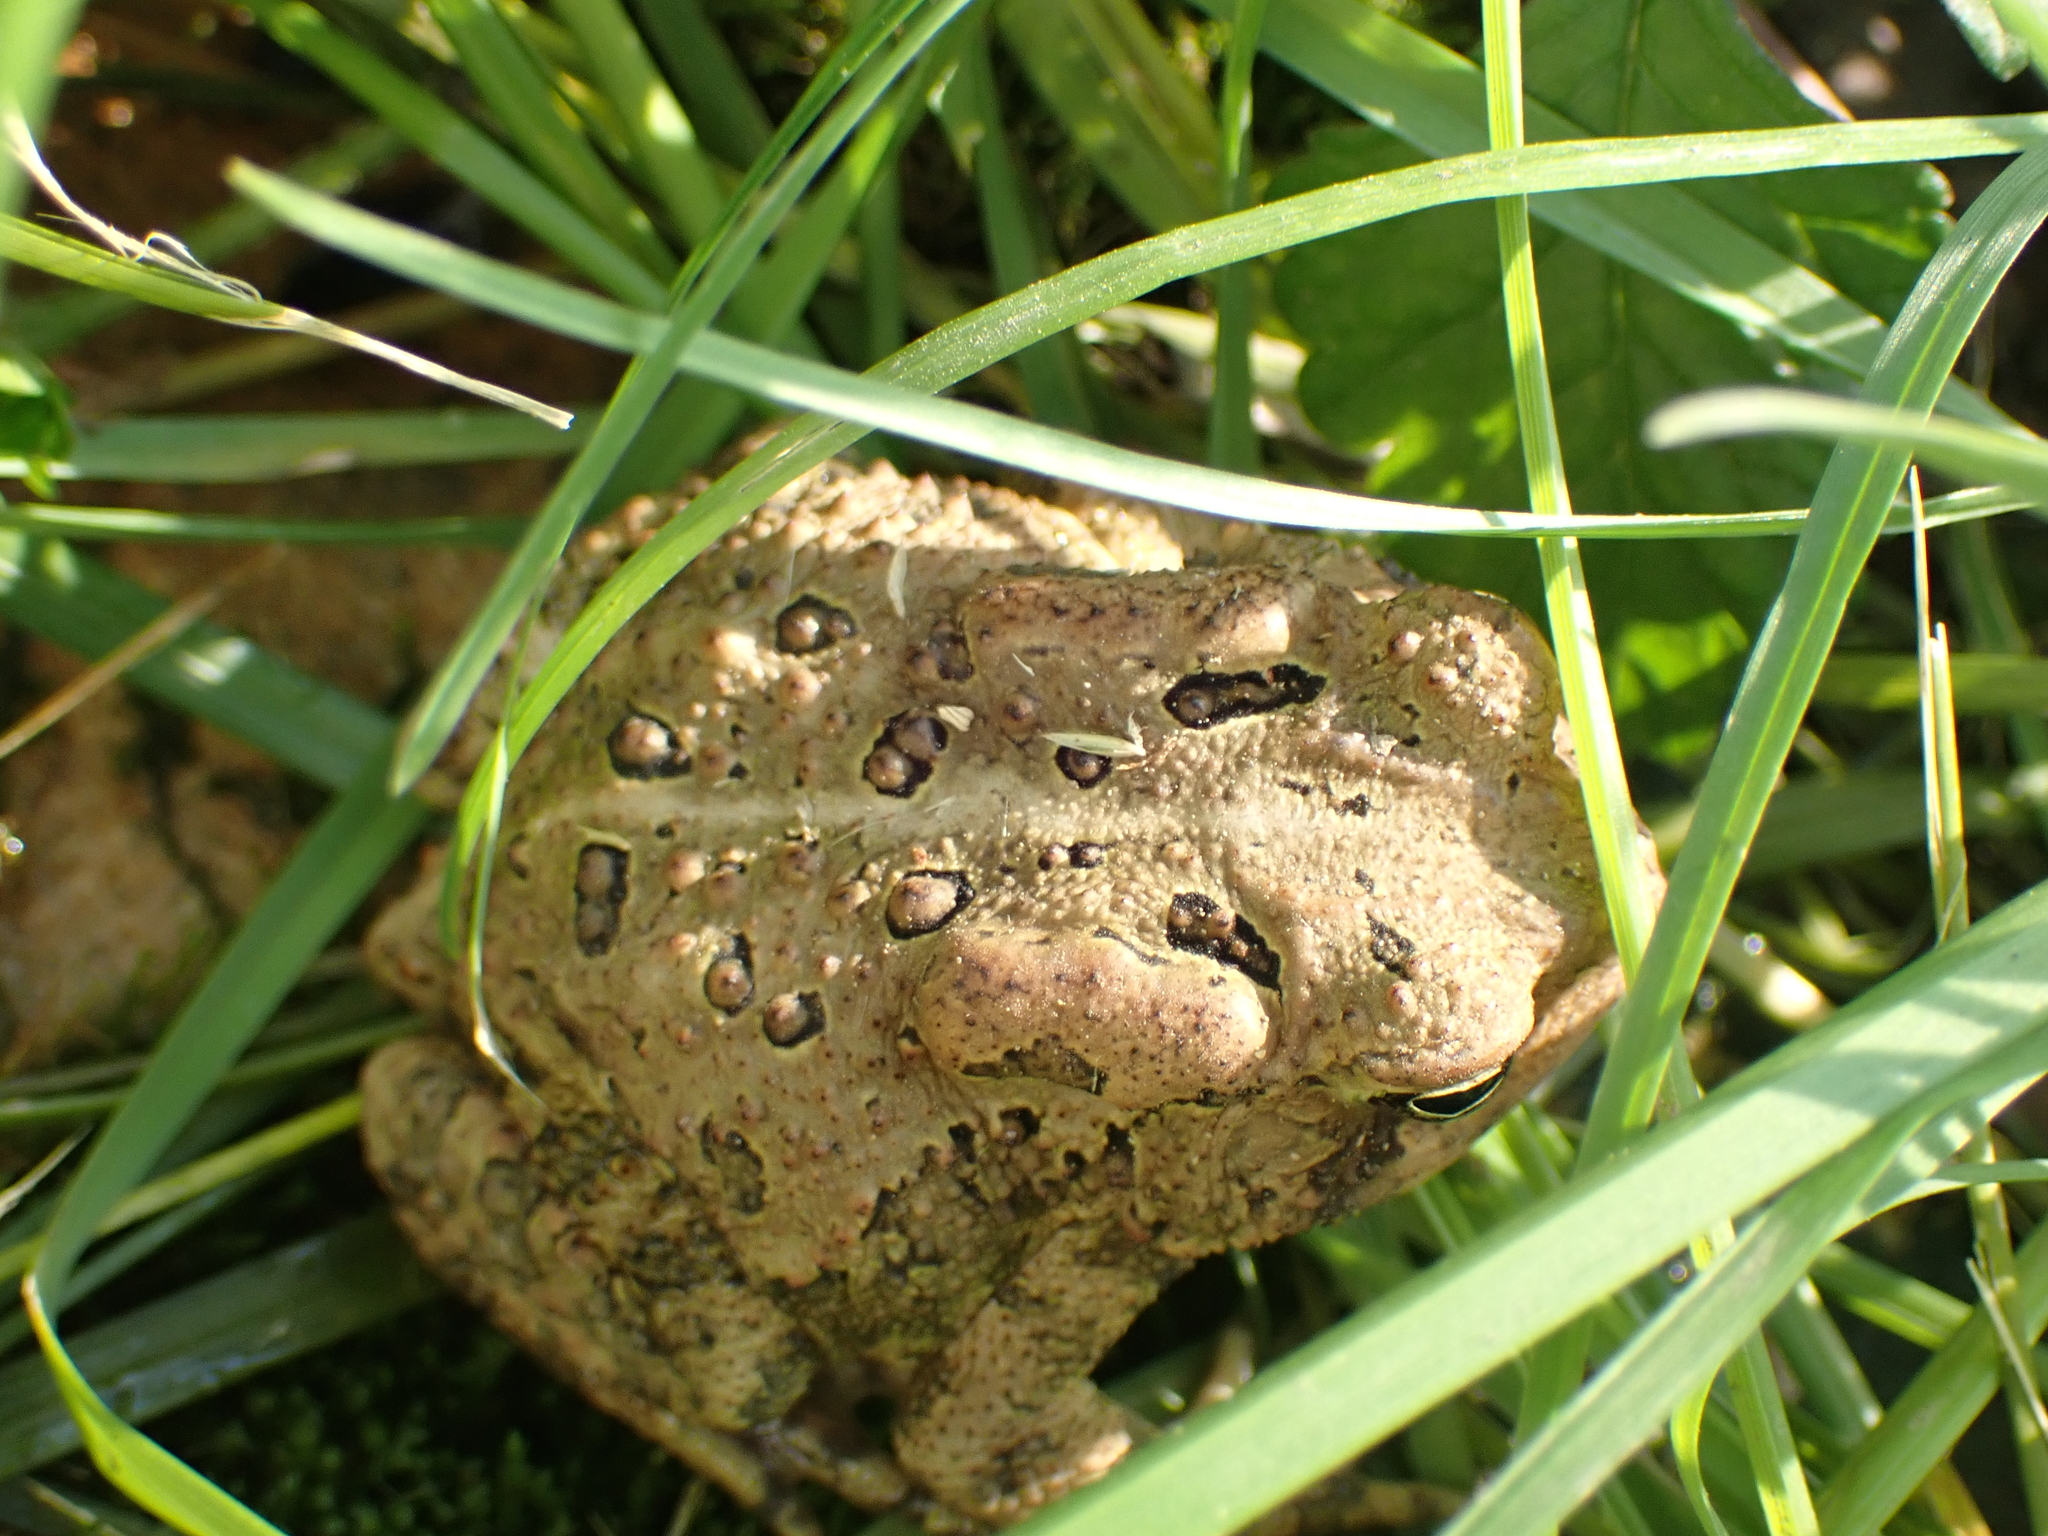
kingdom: Animalia
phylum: Chordata
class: Amphibia
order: Anura
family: Bufonidae
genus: Anaxyrus
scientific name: Anaxyrus americanus
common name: American toad
